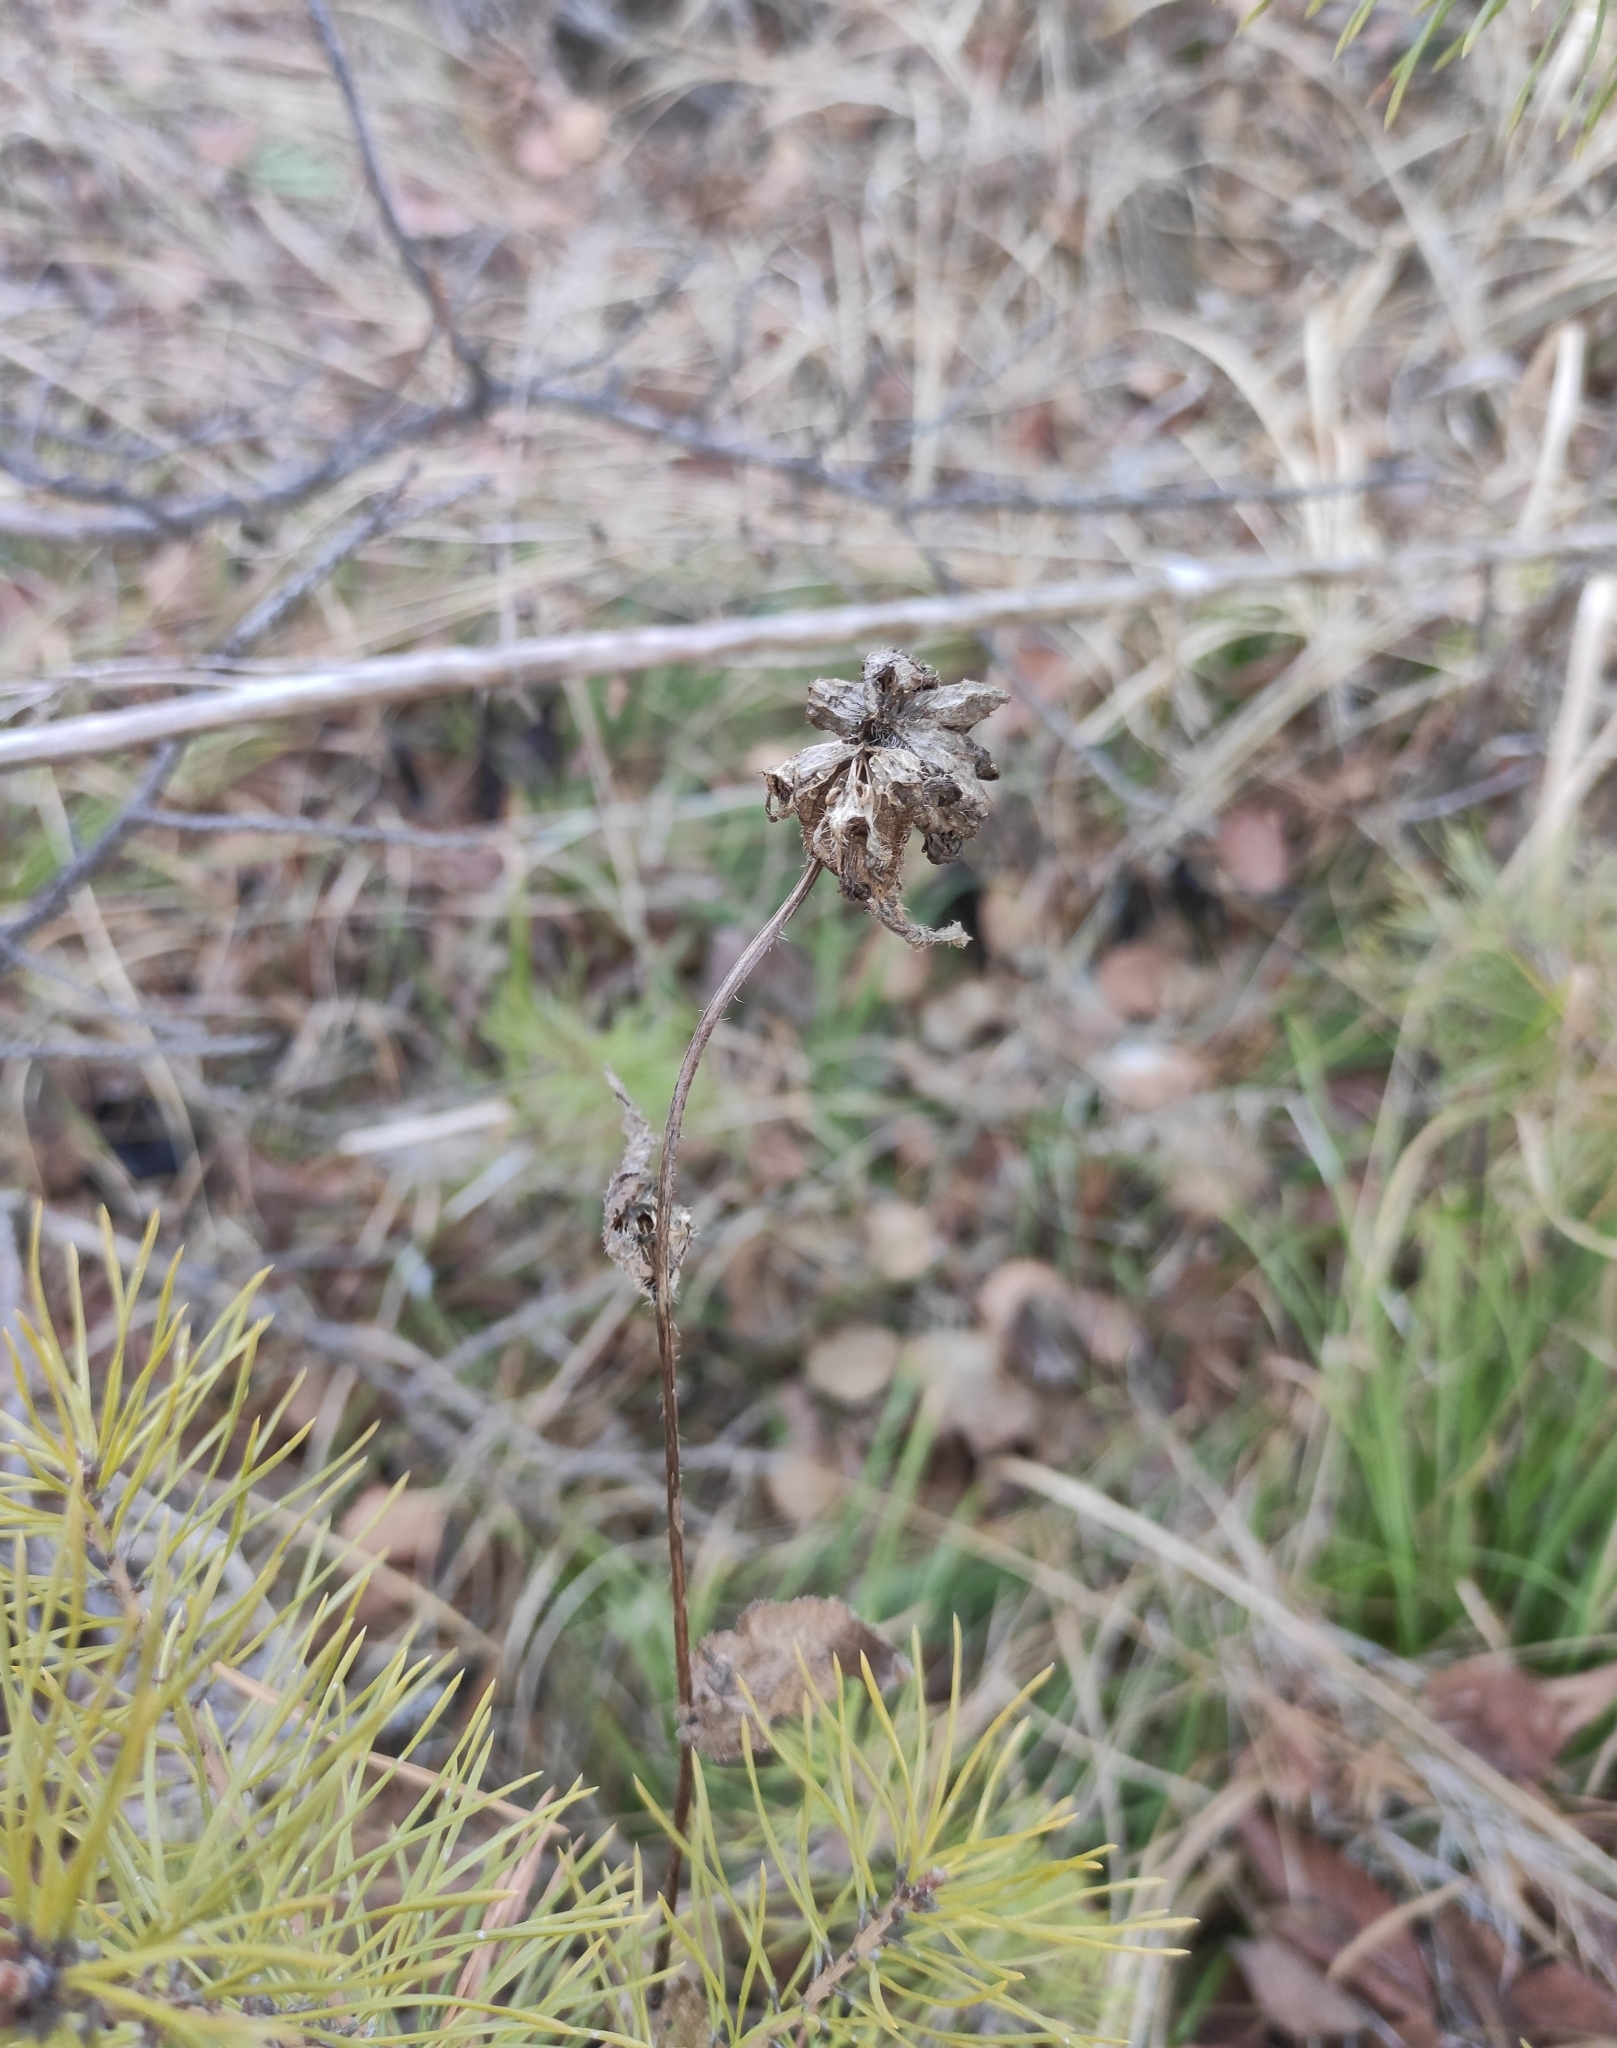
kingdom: Plantae
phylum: Tracheophyta
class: Magnoliopsida
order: Asterales
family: Campanulaceae
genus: Campanula
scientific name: Campanula glomerata
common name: Clustered bellflower
